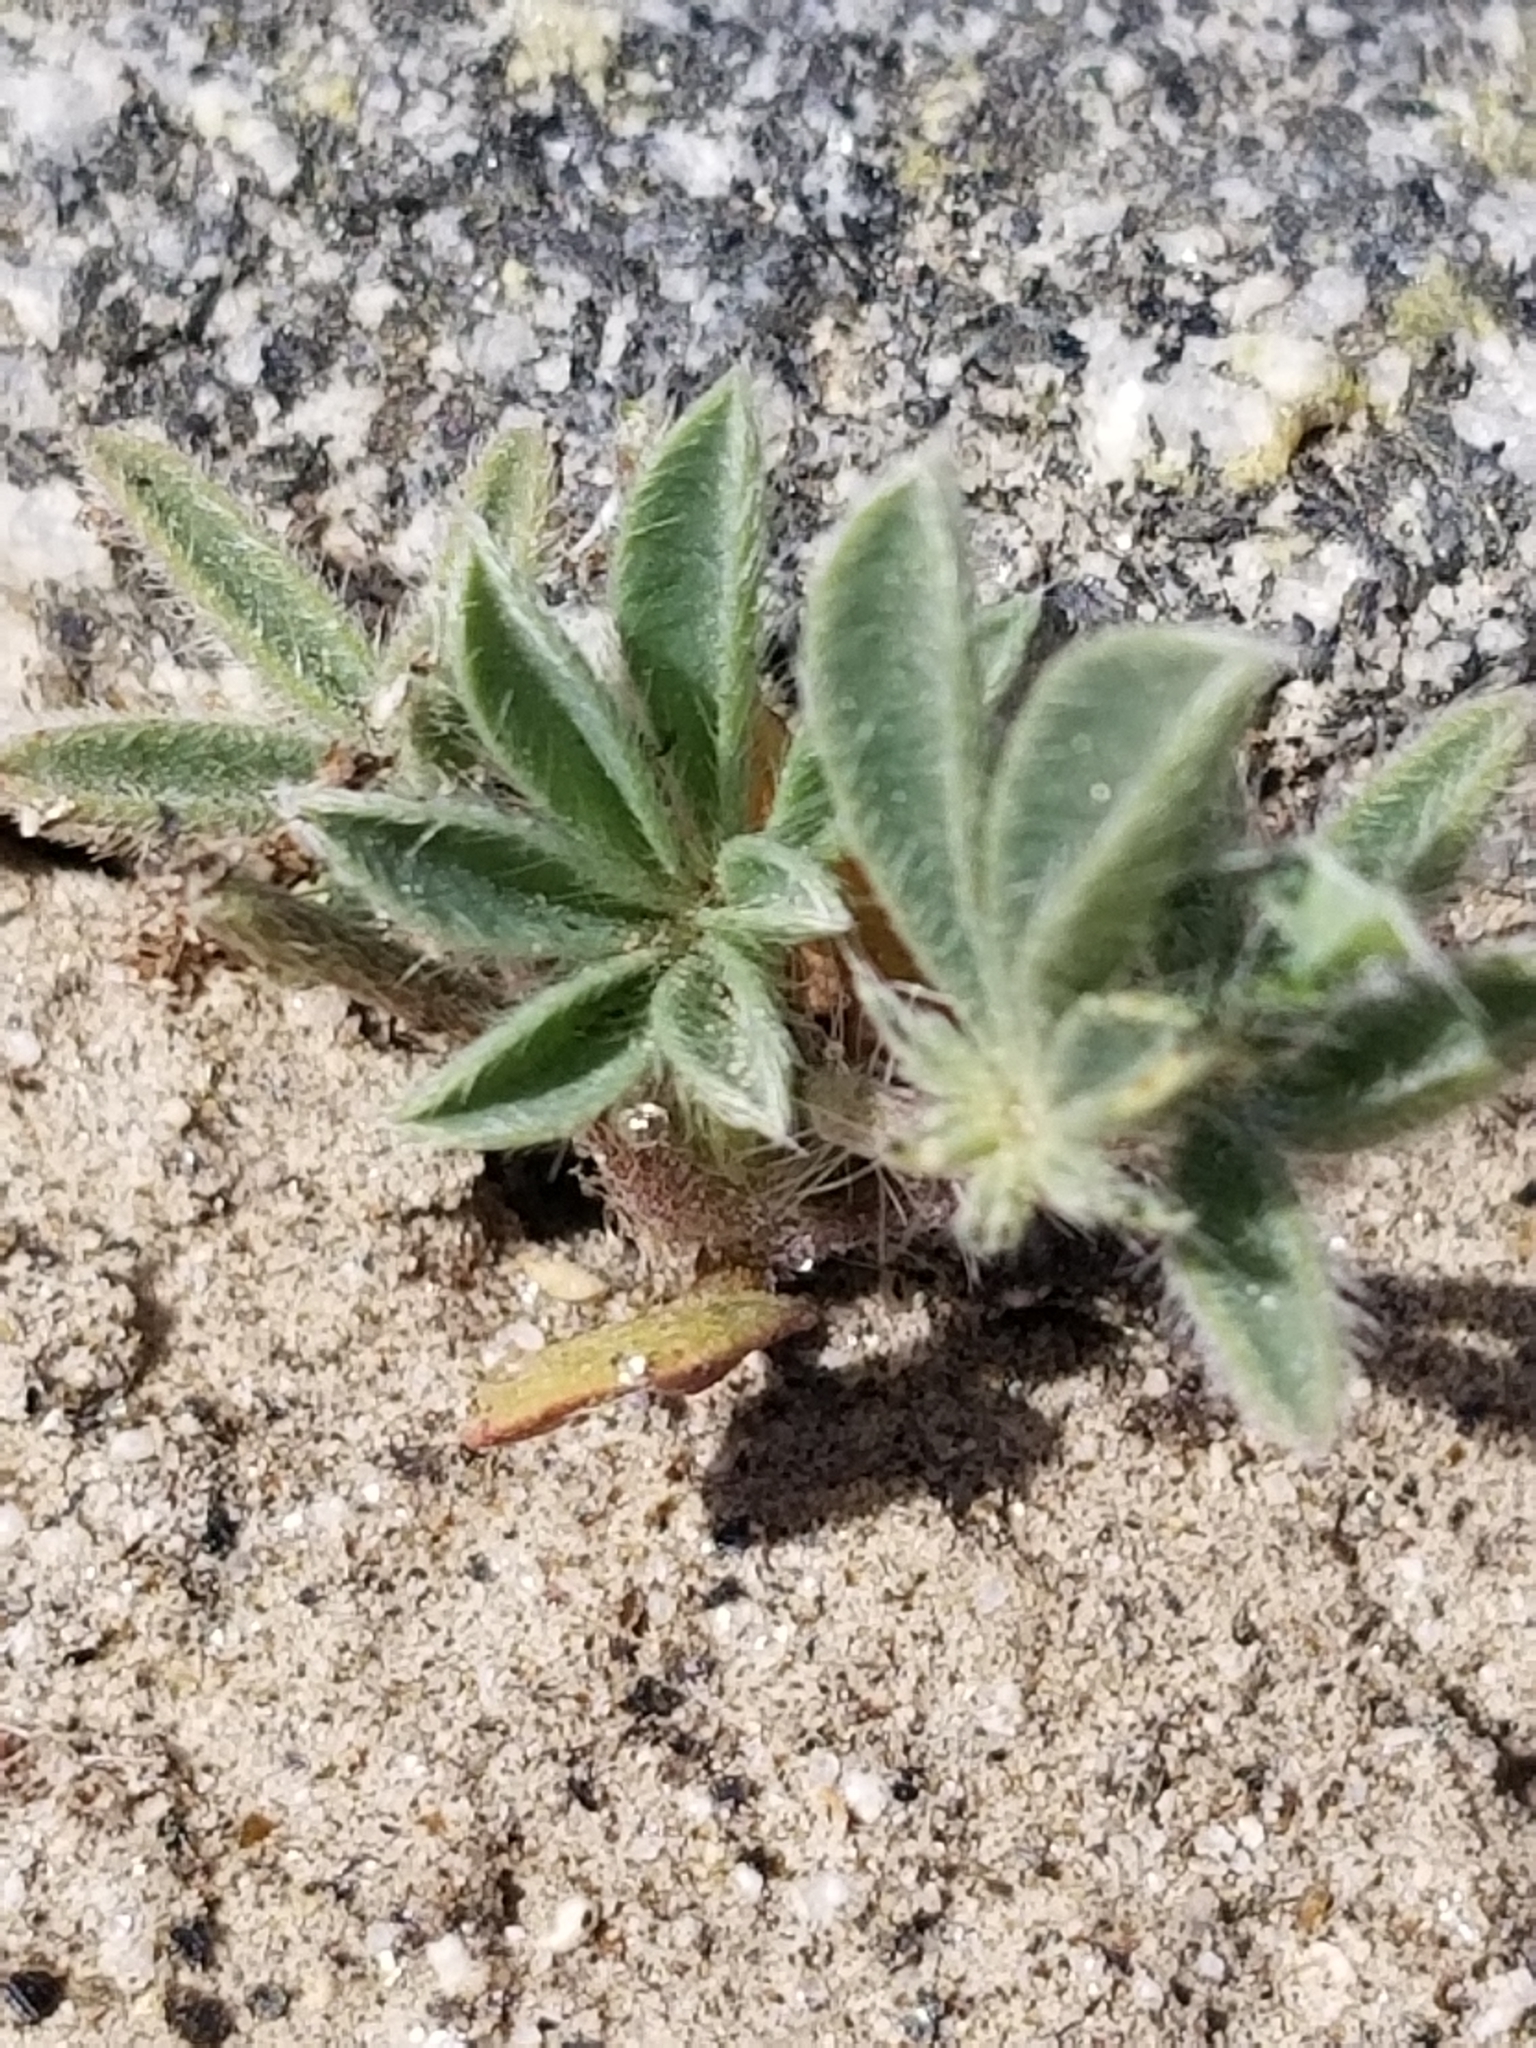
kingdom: Plantae
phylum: Tracheophyta
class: Magnoliopsida
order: Fabales
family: Fabaceae
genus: Lupinus
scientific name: Lupinus arizonicus
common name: Arizona lupine
